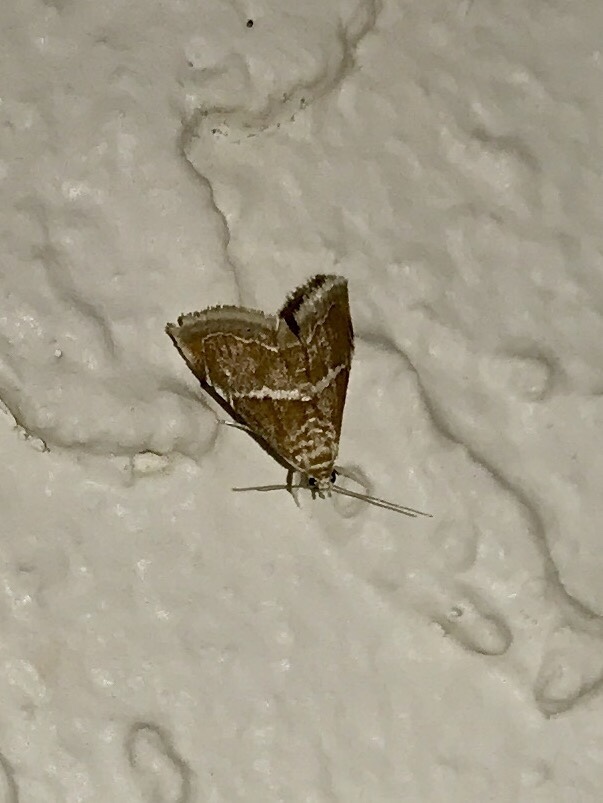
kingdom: Animalia
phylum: Arthropoda
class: Insecta
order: Lepidoptera
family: Crambidae
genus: Abegesta
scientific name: Abegesta reluctalis
